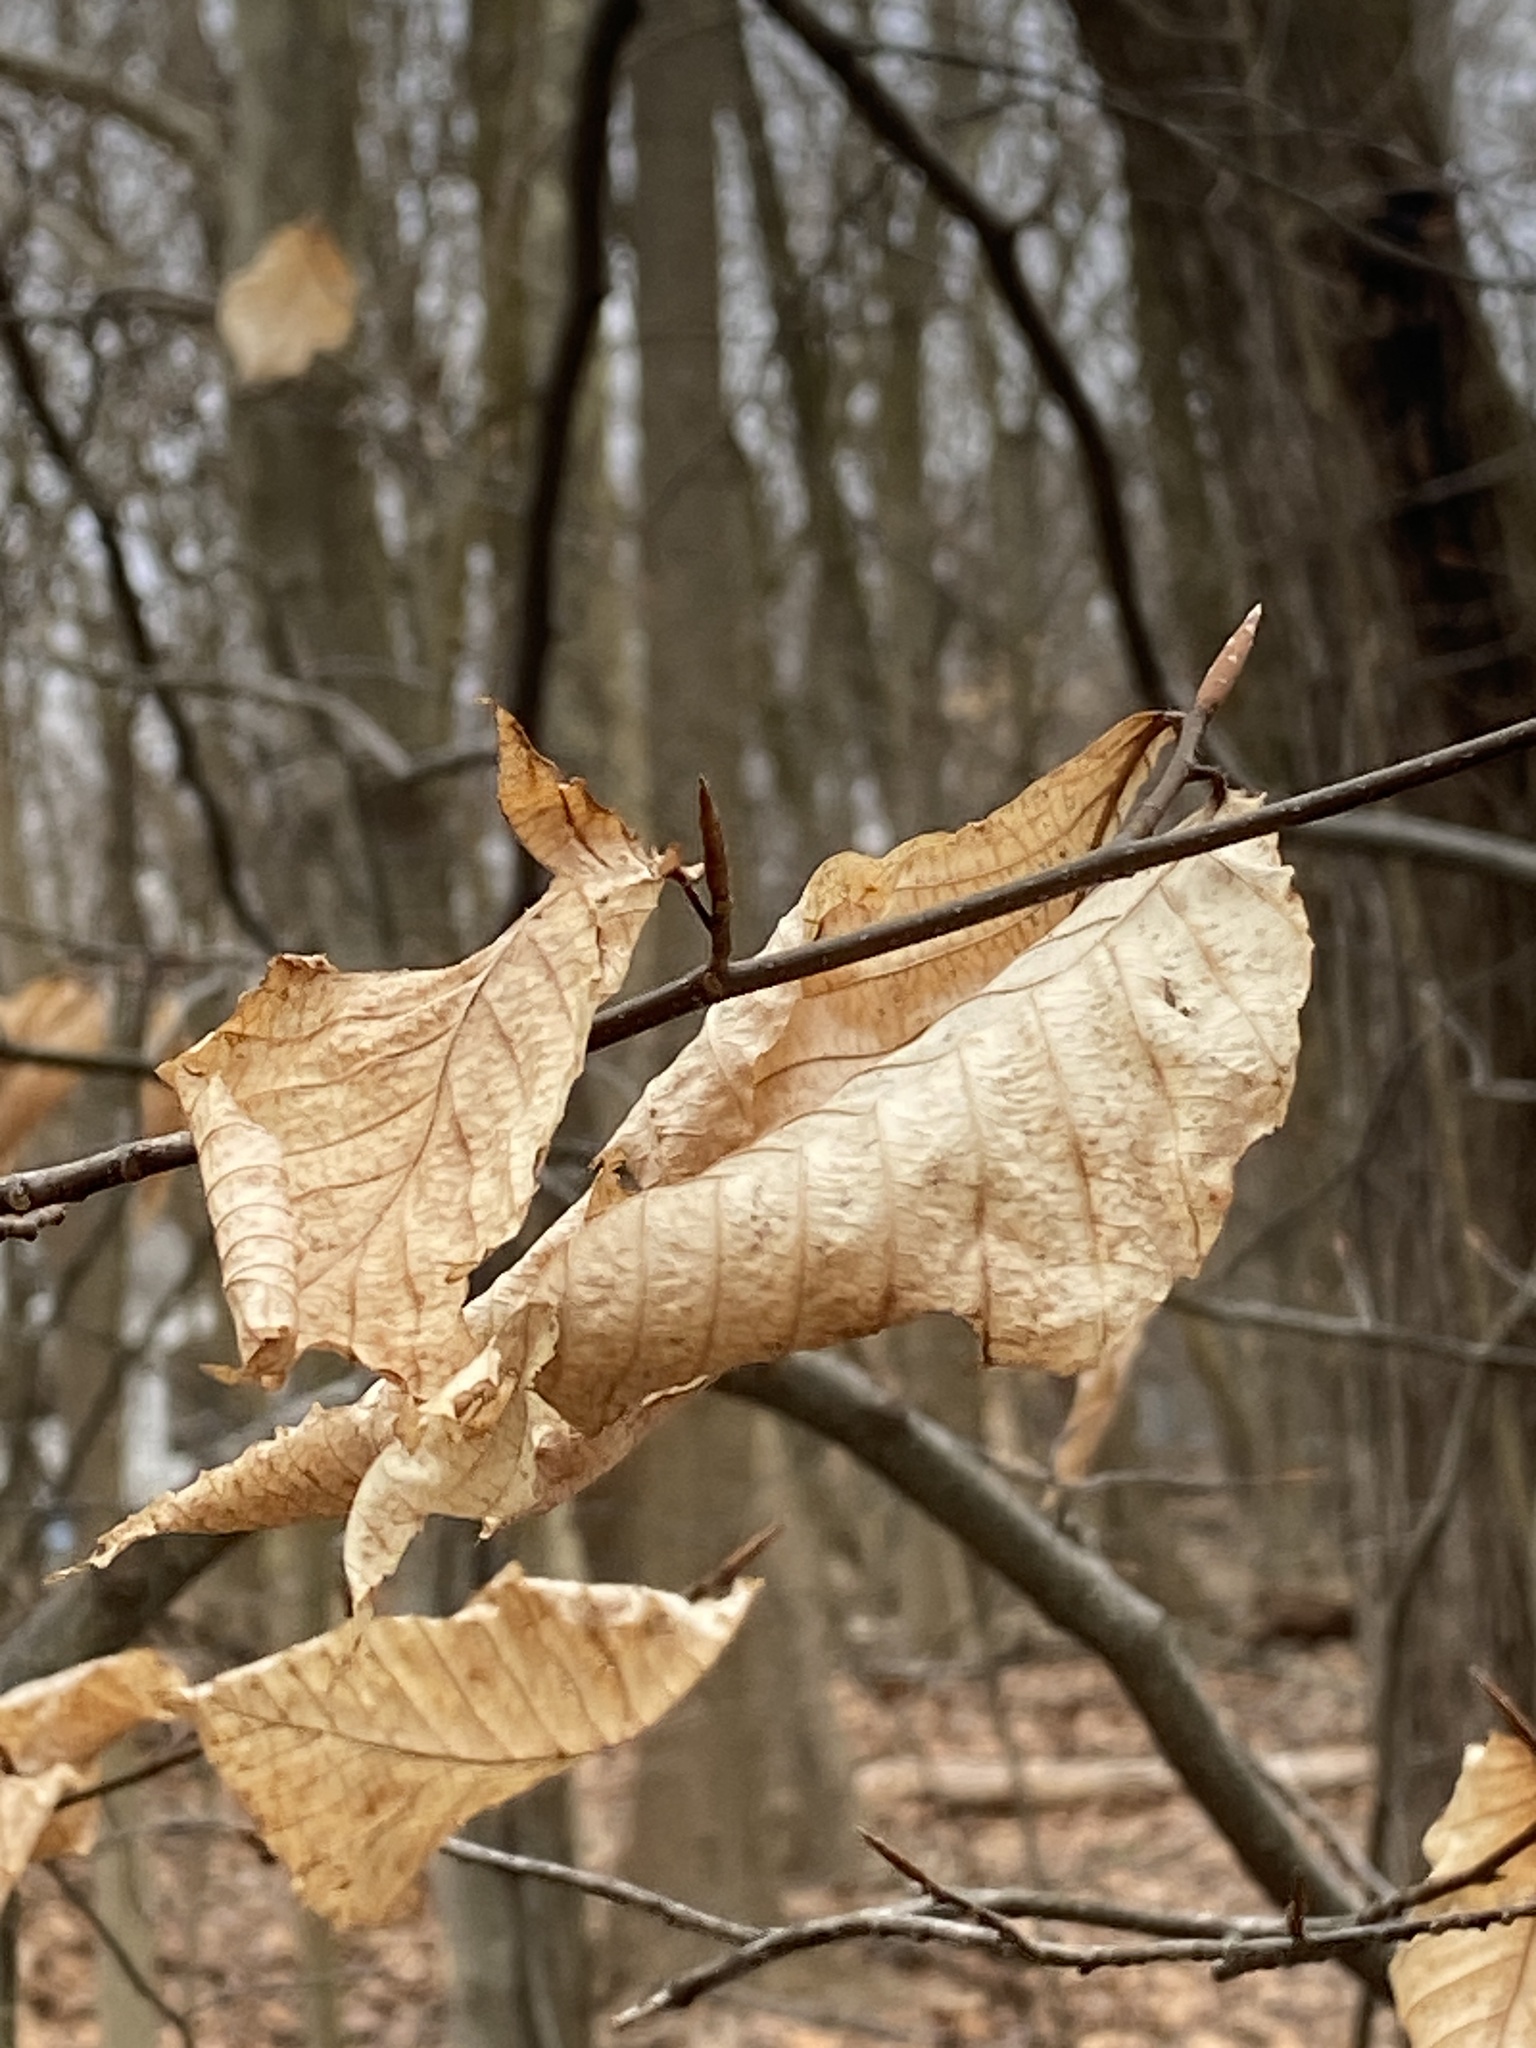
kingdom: Plantae
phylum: Tracheophyta
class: Magnoliopsida
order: Fagales
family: Fagaceae
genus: Fagus
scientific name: Fagus grandifolia
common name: American beech
